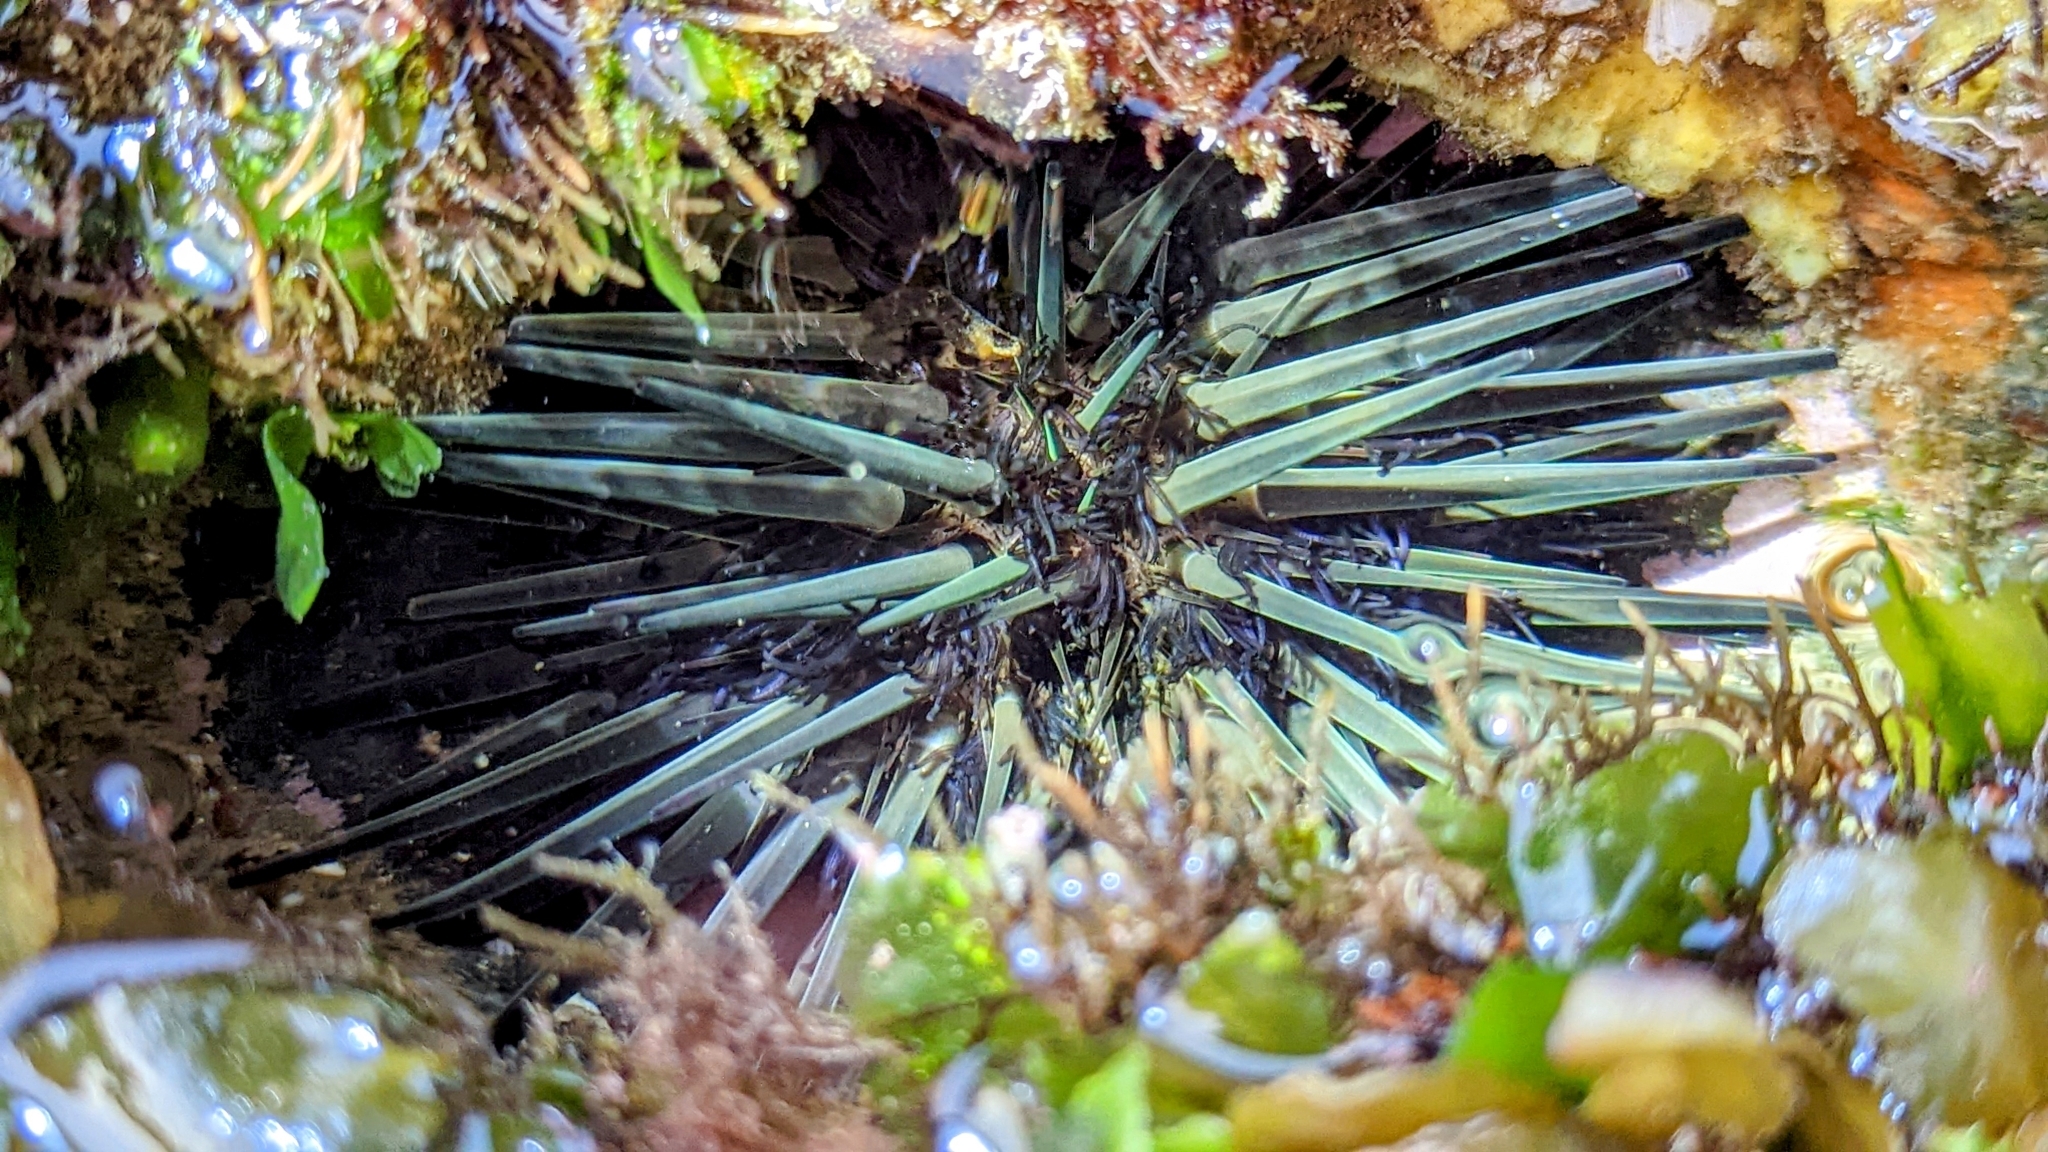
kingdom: Animalia
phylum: Echinodermata
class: Echinoidea
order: Stomopneustoida
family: Stomopneustidae
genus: Stomopneustes
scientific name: Stomopneustes variolaris
